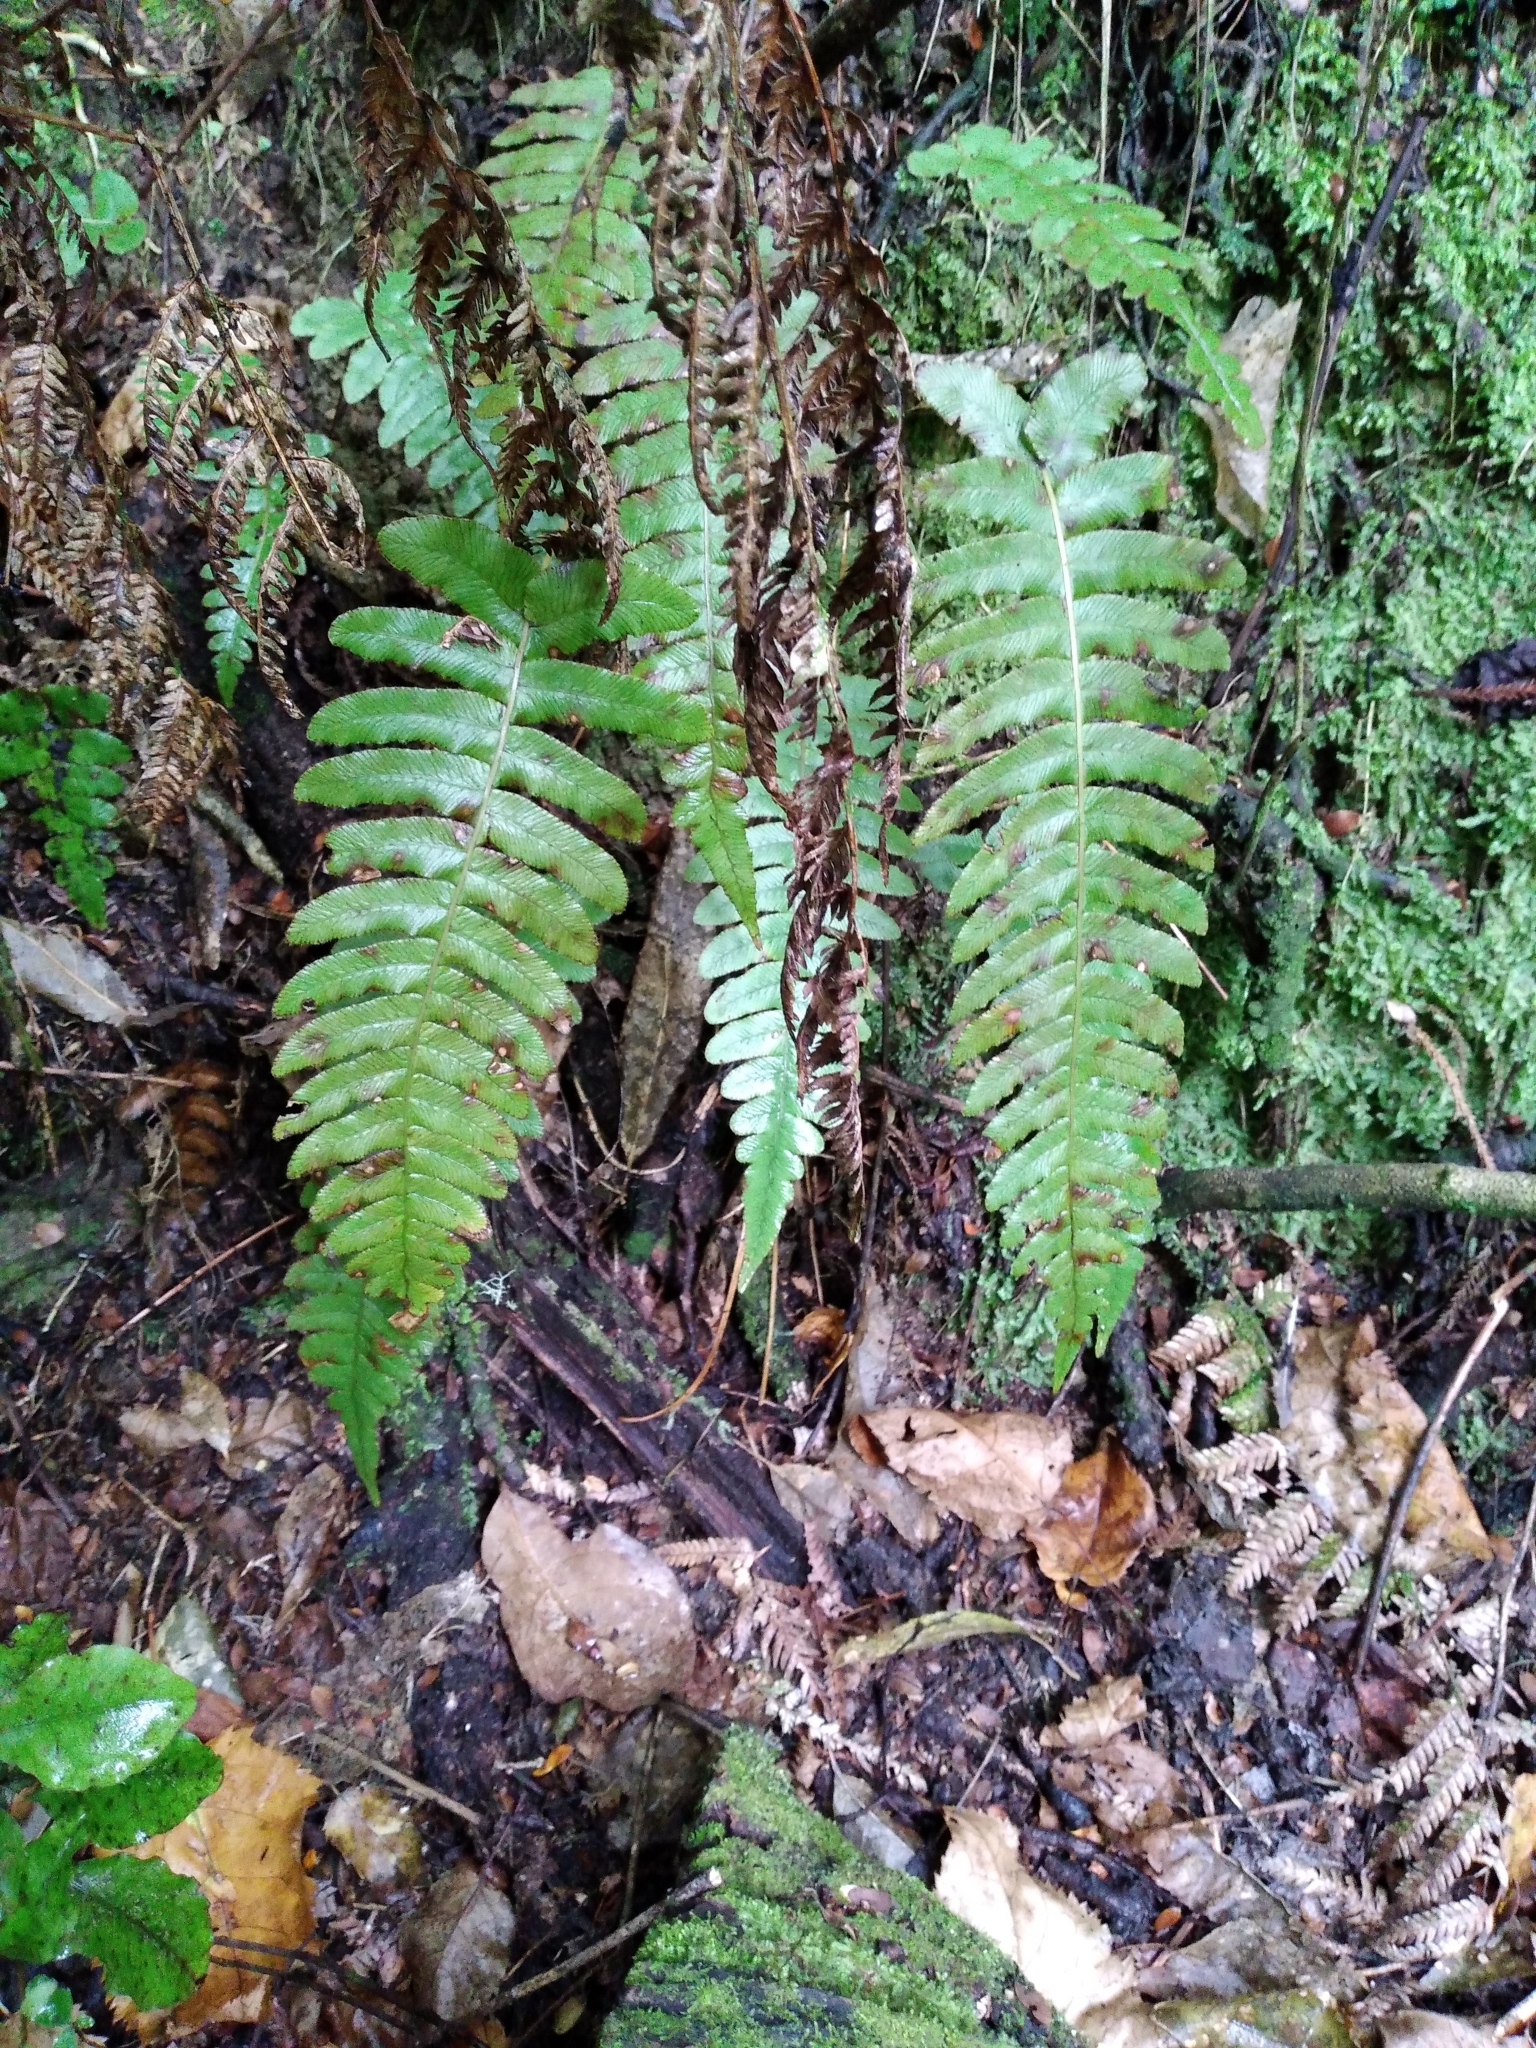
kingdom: Plantae
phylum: Tracheophyta
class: Polypodiopsida
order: Polypodiales
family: Blechnaceae
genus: Cranfillia
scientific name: Cranfillia deltoides
